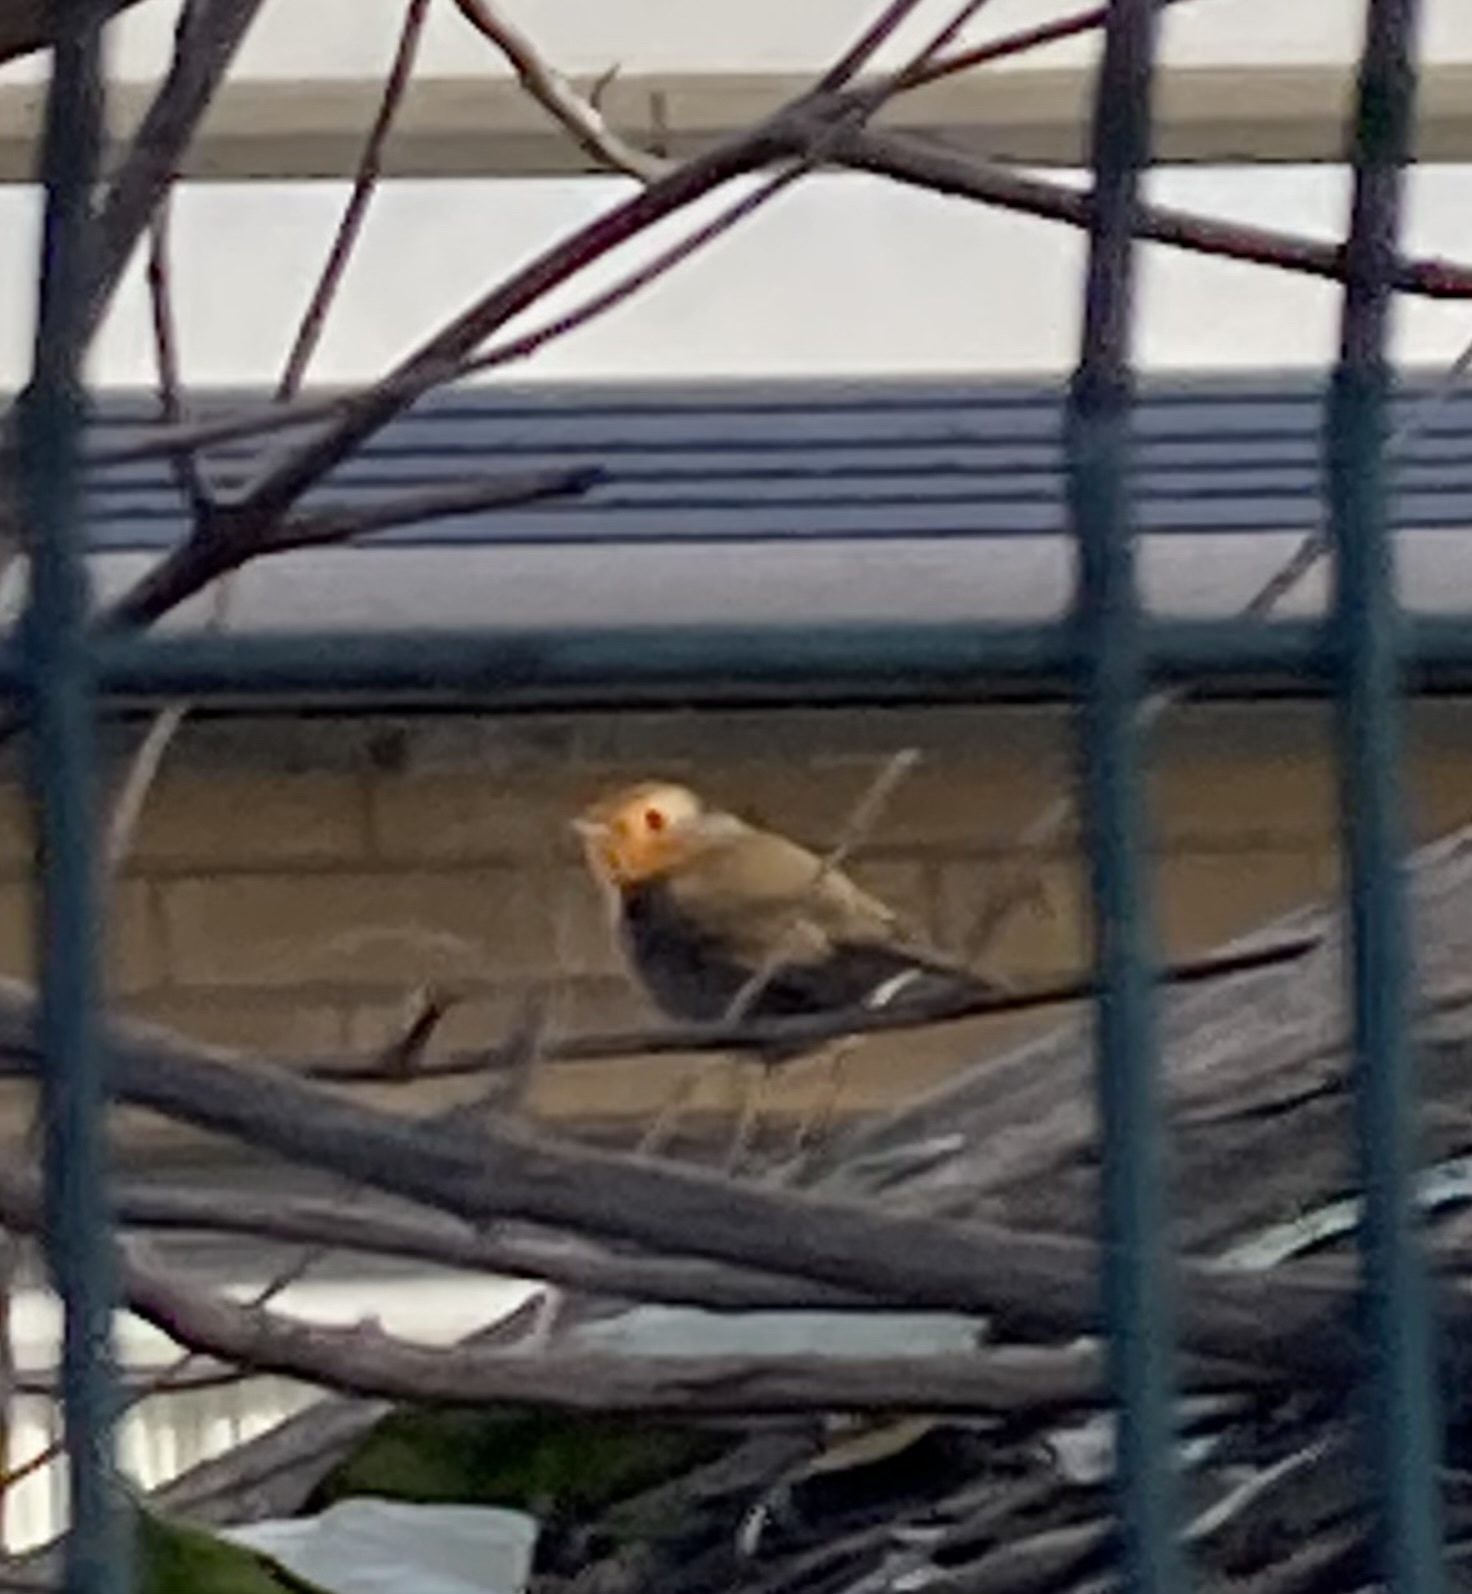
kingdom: Animalia
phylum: Chordata
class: Aves
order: Passeriformes
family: Muscicapidae
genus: Erithacus
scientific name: Erithacus rubecula
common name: European robin
